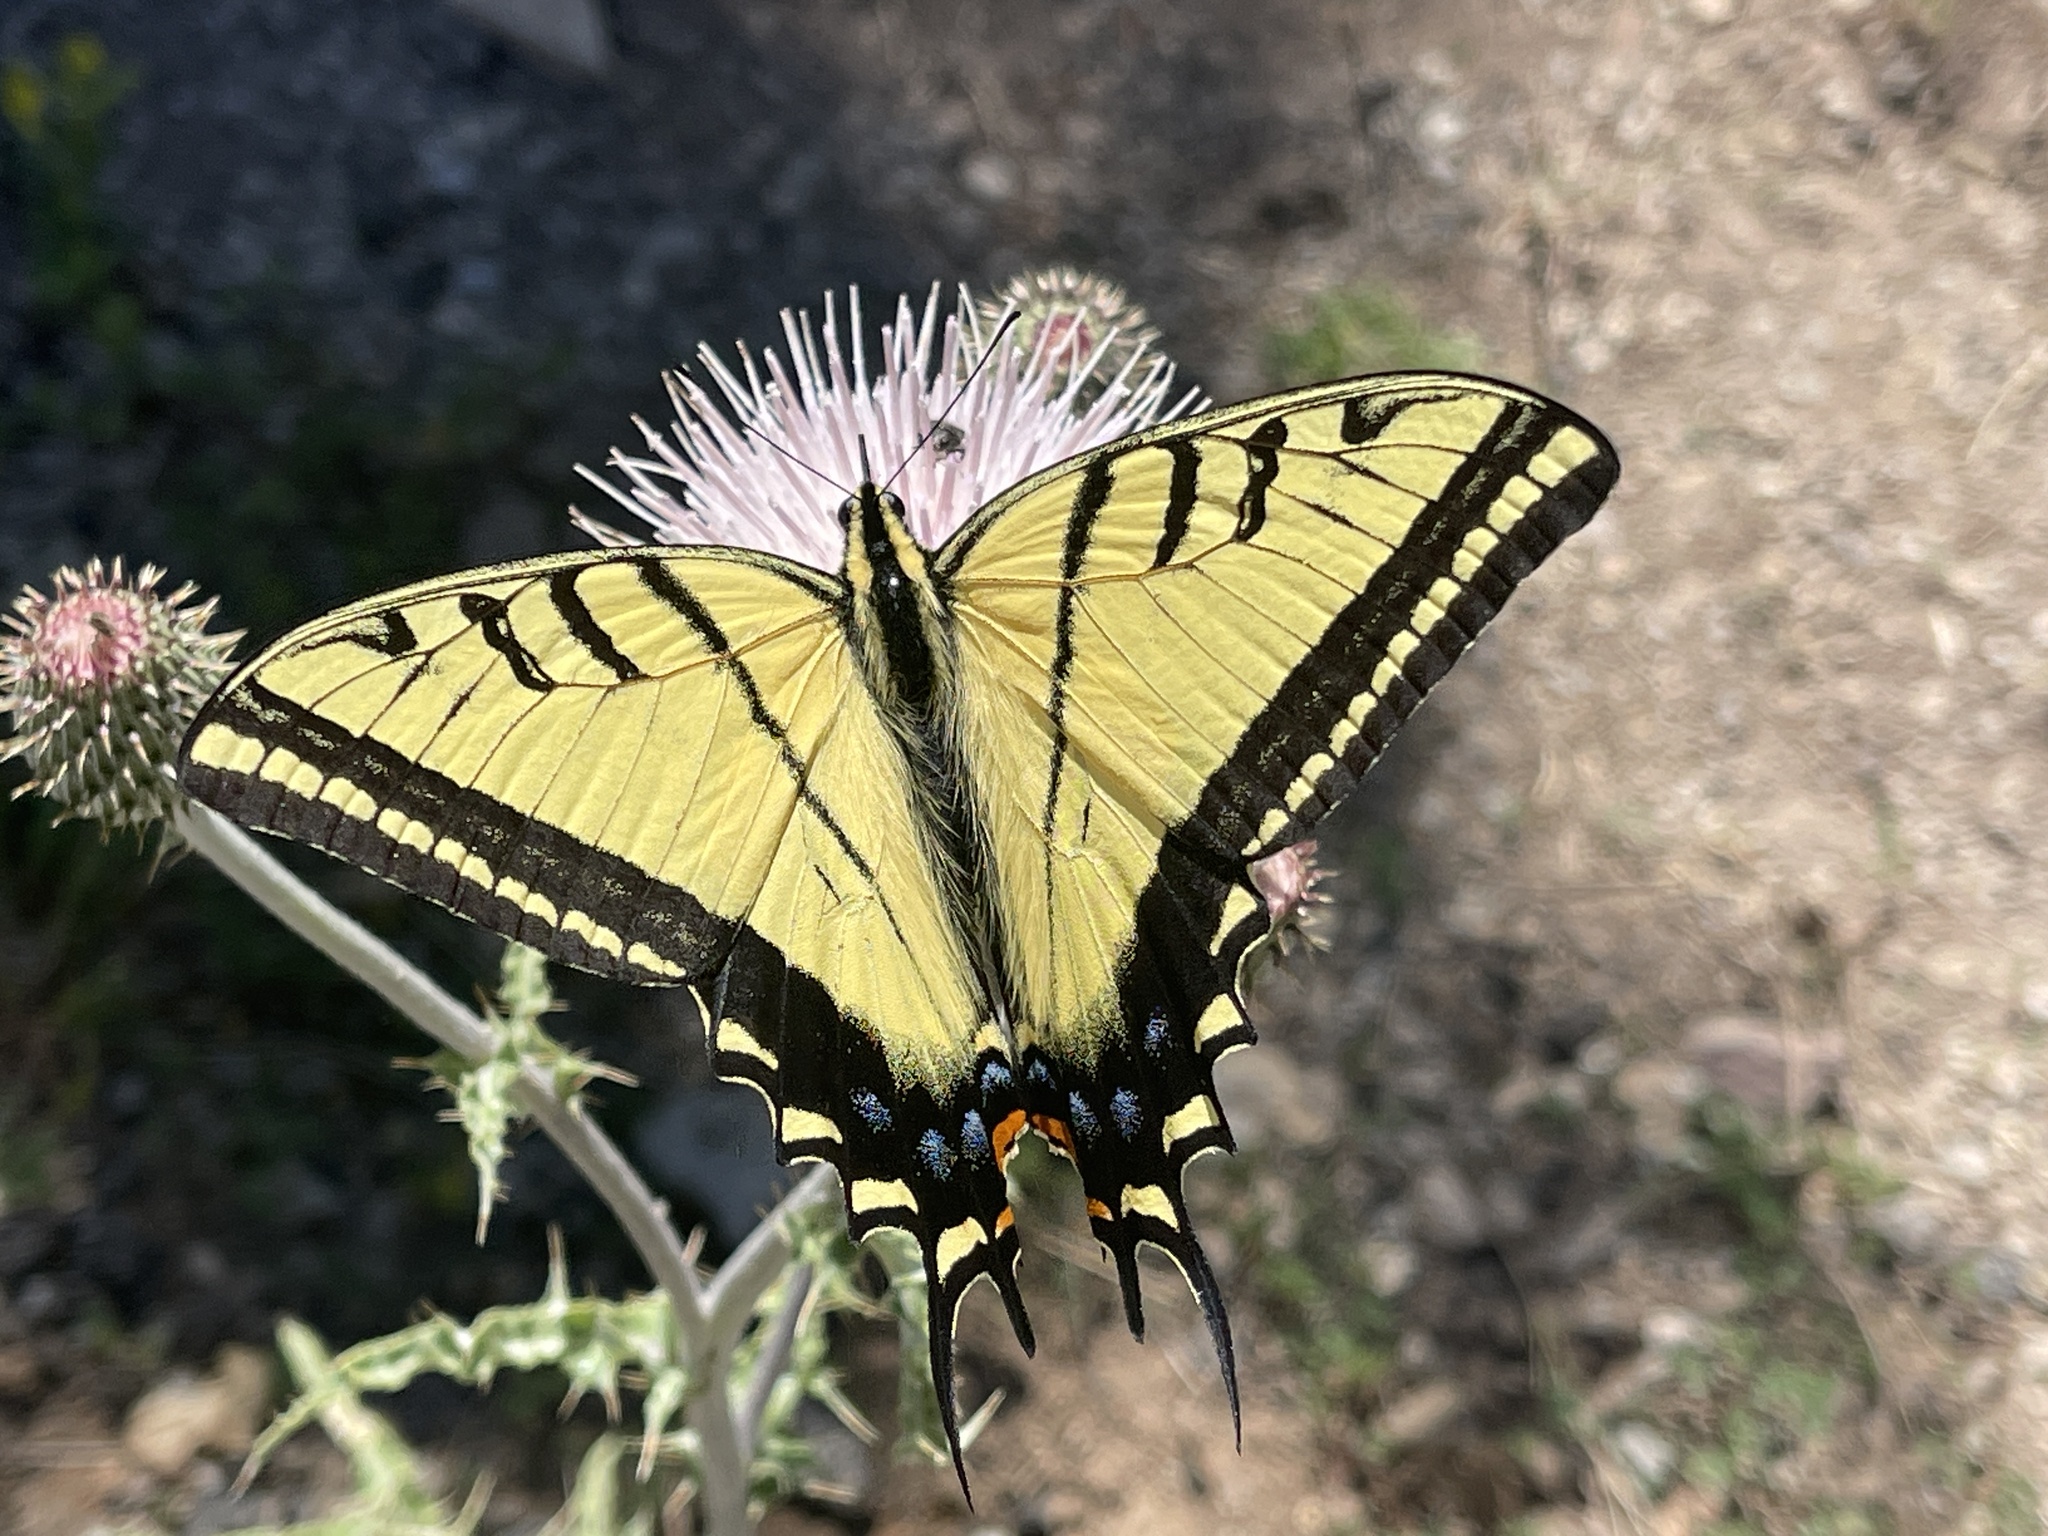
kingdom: Animalia
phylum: Arthropoda
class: Insecta
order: Lepidoptera
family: Papilionidae
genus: Papilio
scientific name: Papilio multicaudata
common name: Two-tailed tiger swallowtail
